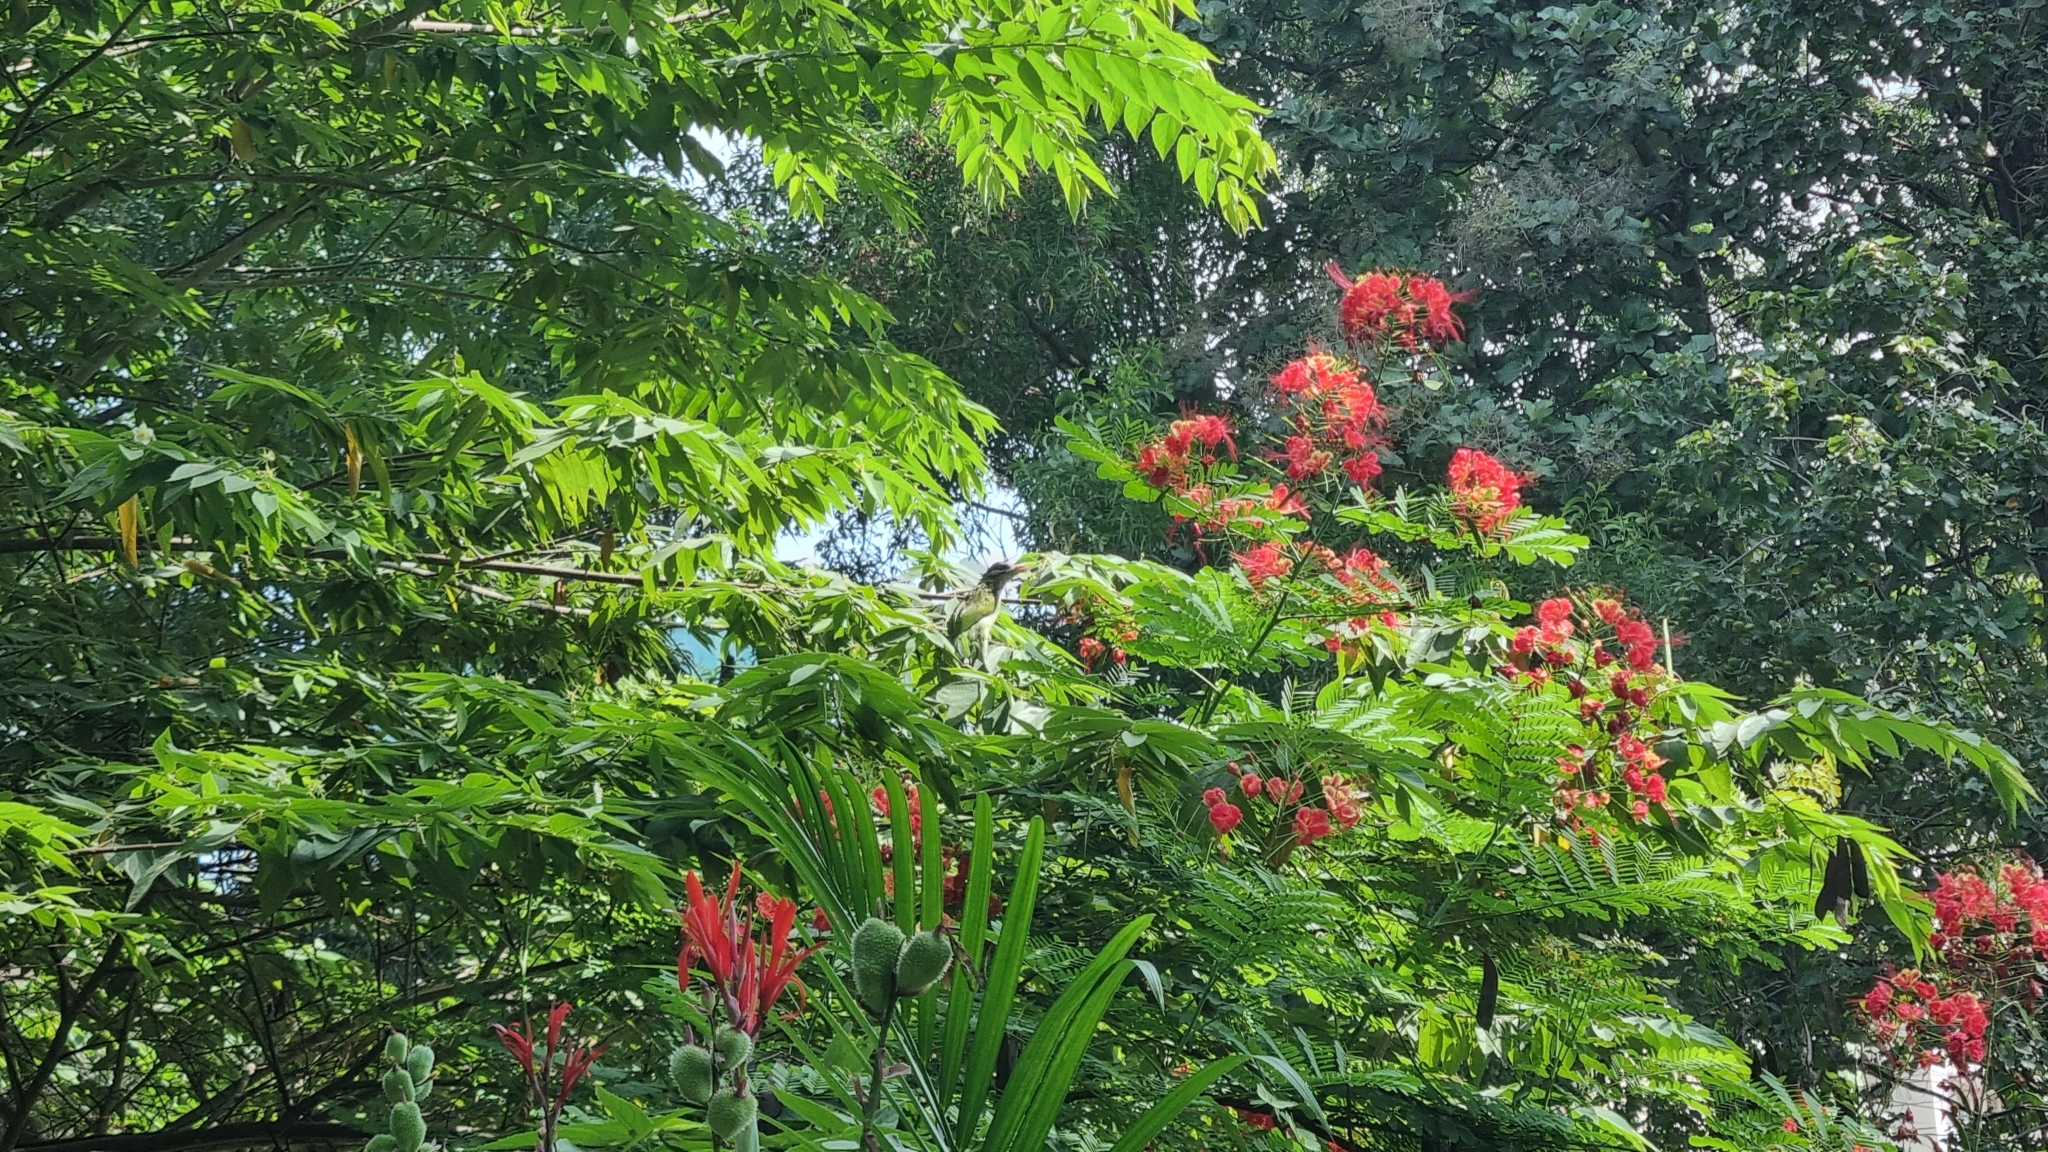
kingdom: Animalia
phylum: Chordata
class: Aves
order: Piciformes
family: Megalaimidae
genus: Psilopogon
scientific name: Psilopogon viridis
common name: White-cheeked barbet
